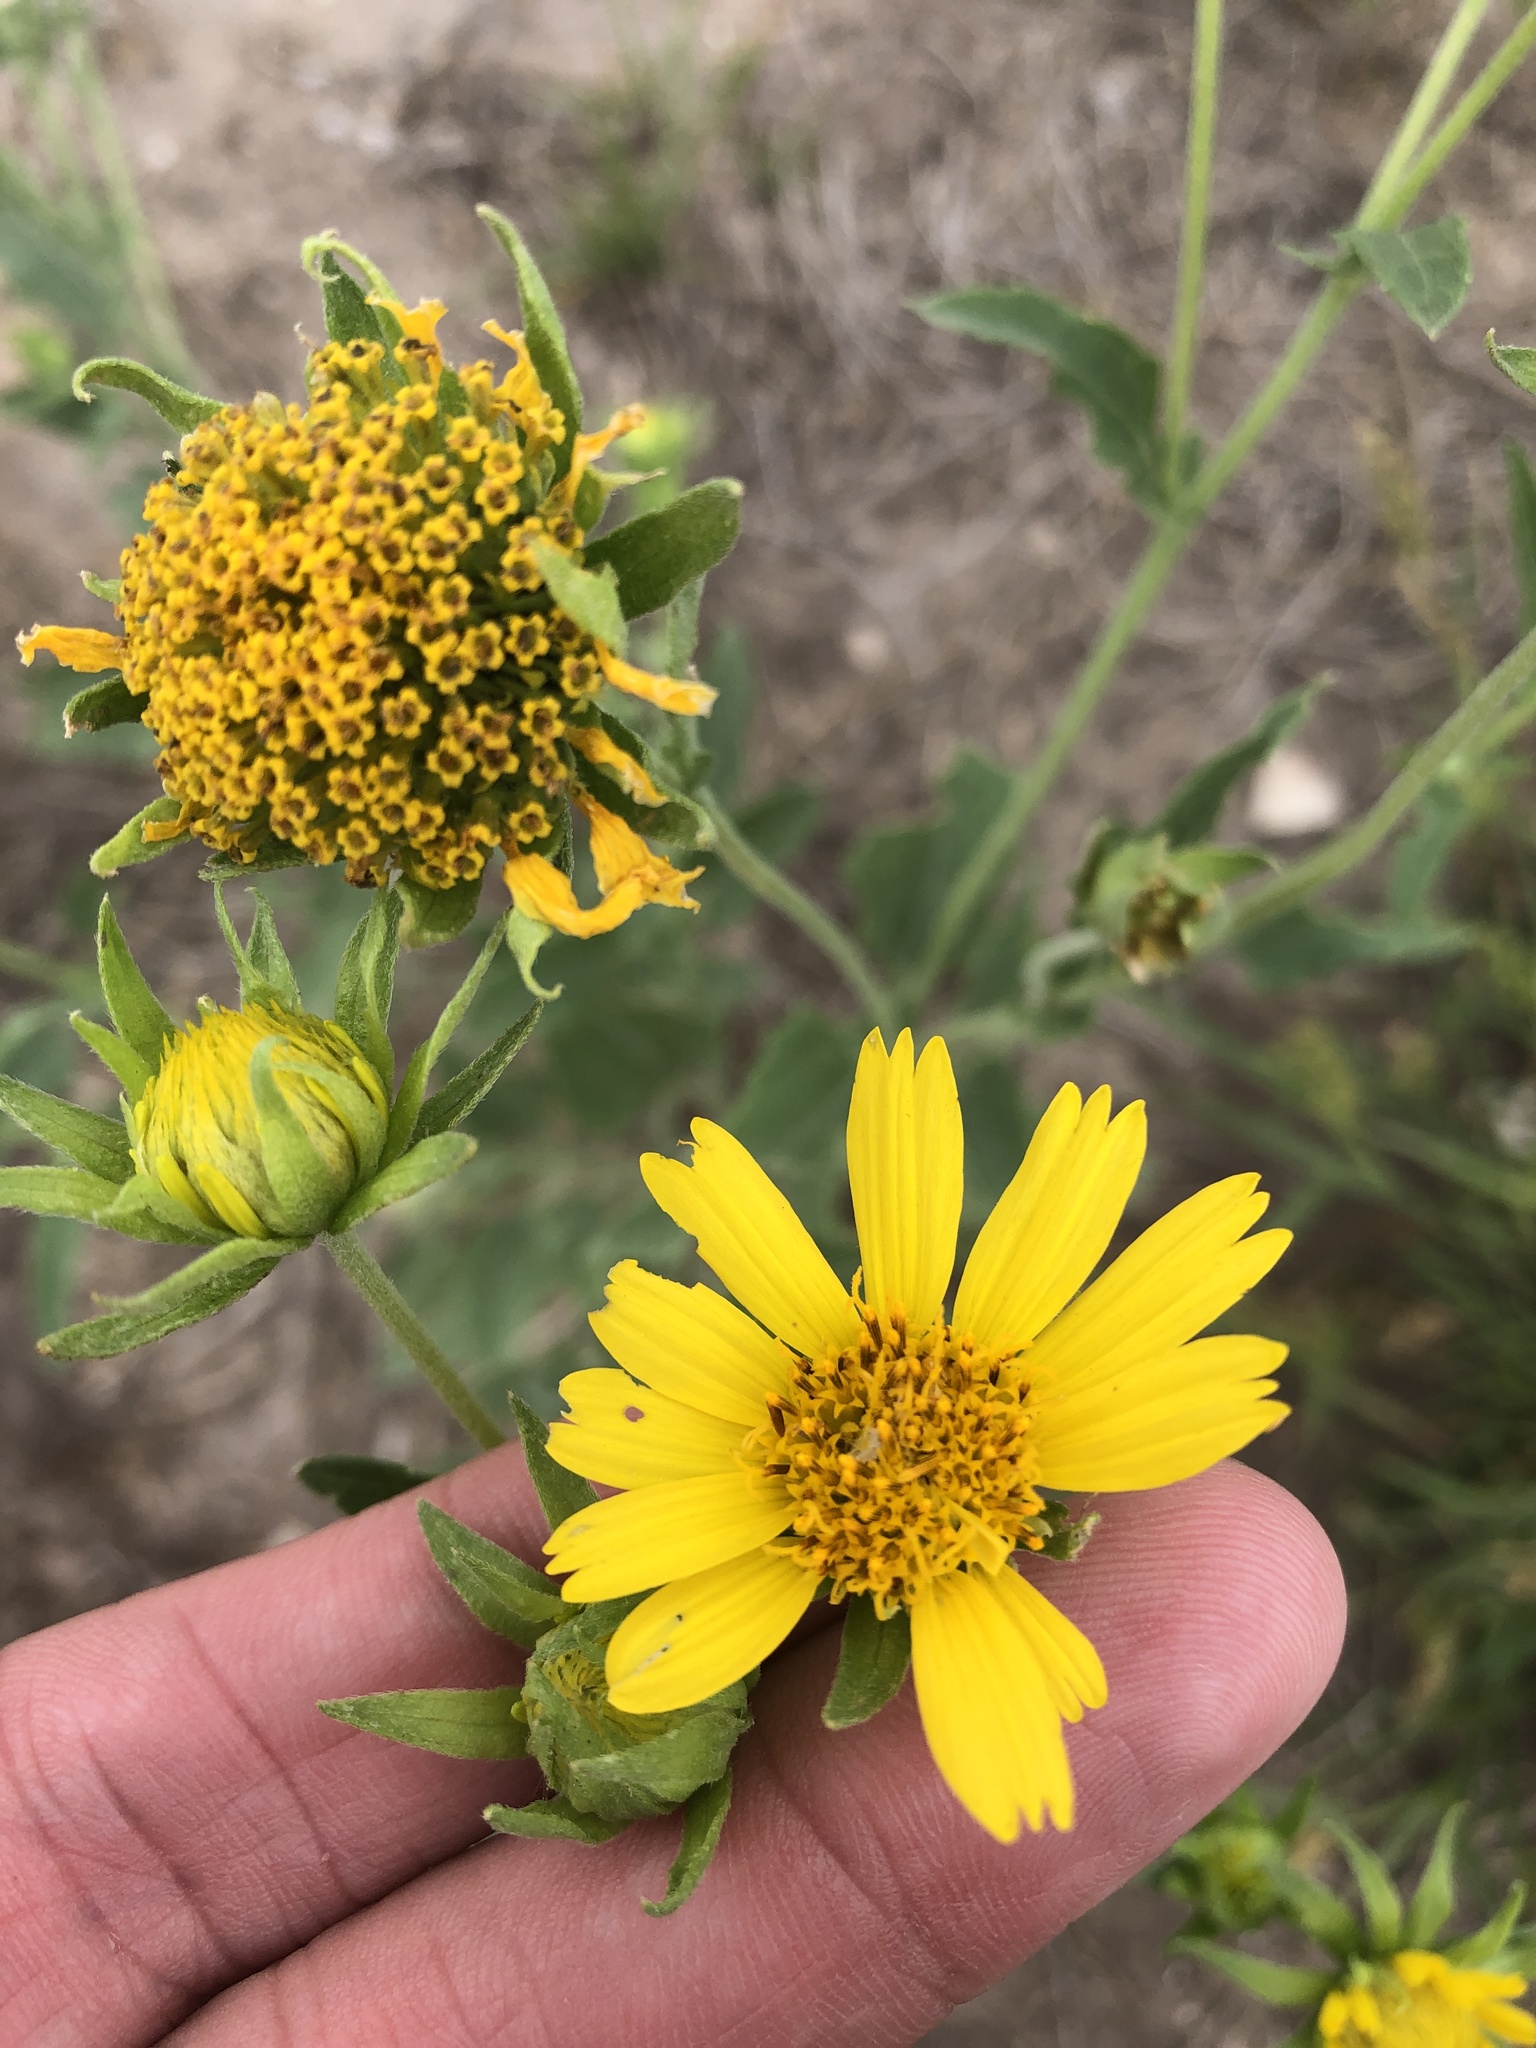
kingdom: Plantae
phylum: Tracheophyta
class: Magnoliopsida
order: Asterales
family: Asteraceae
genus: Verbesina
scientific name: Verbesina encelioides
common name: Golden crownbeard
